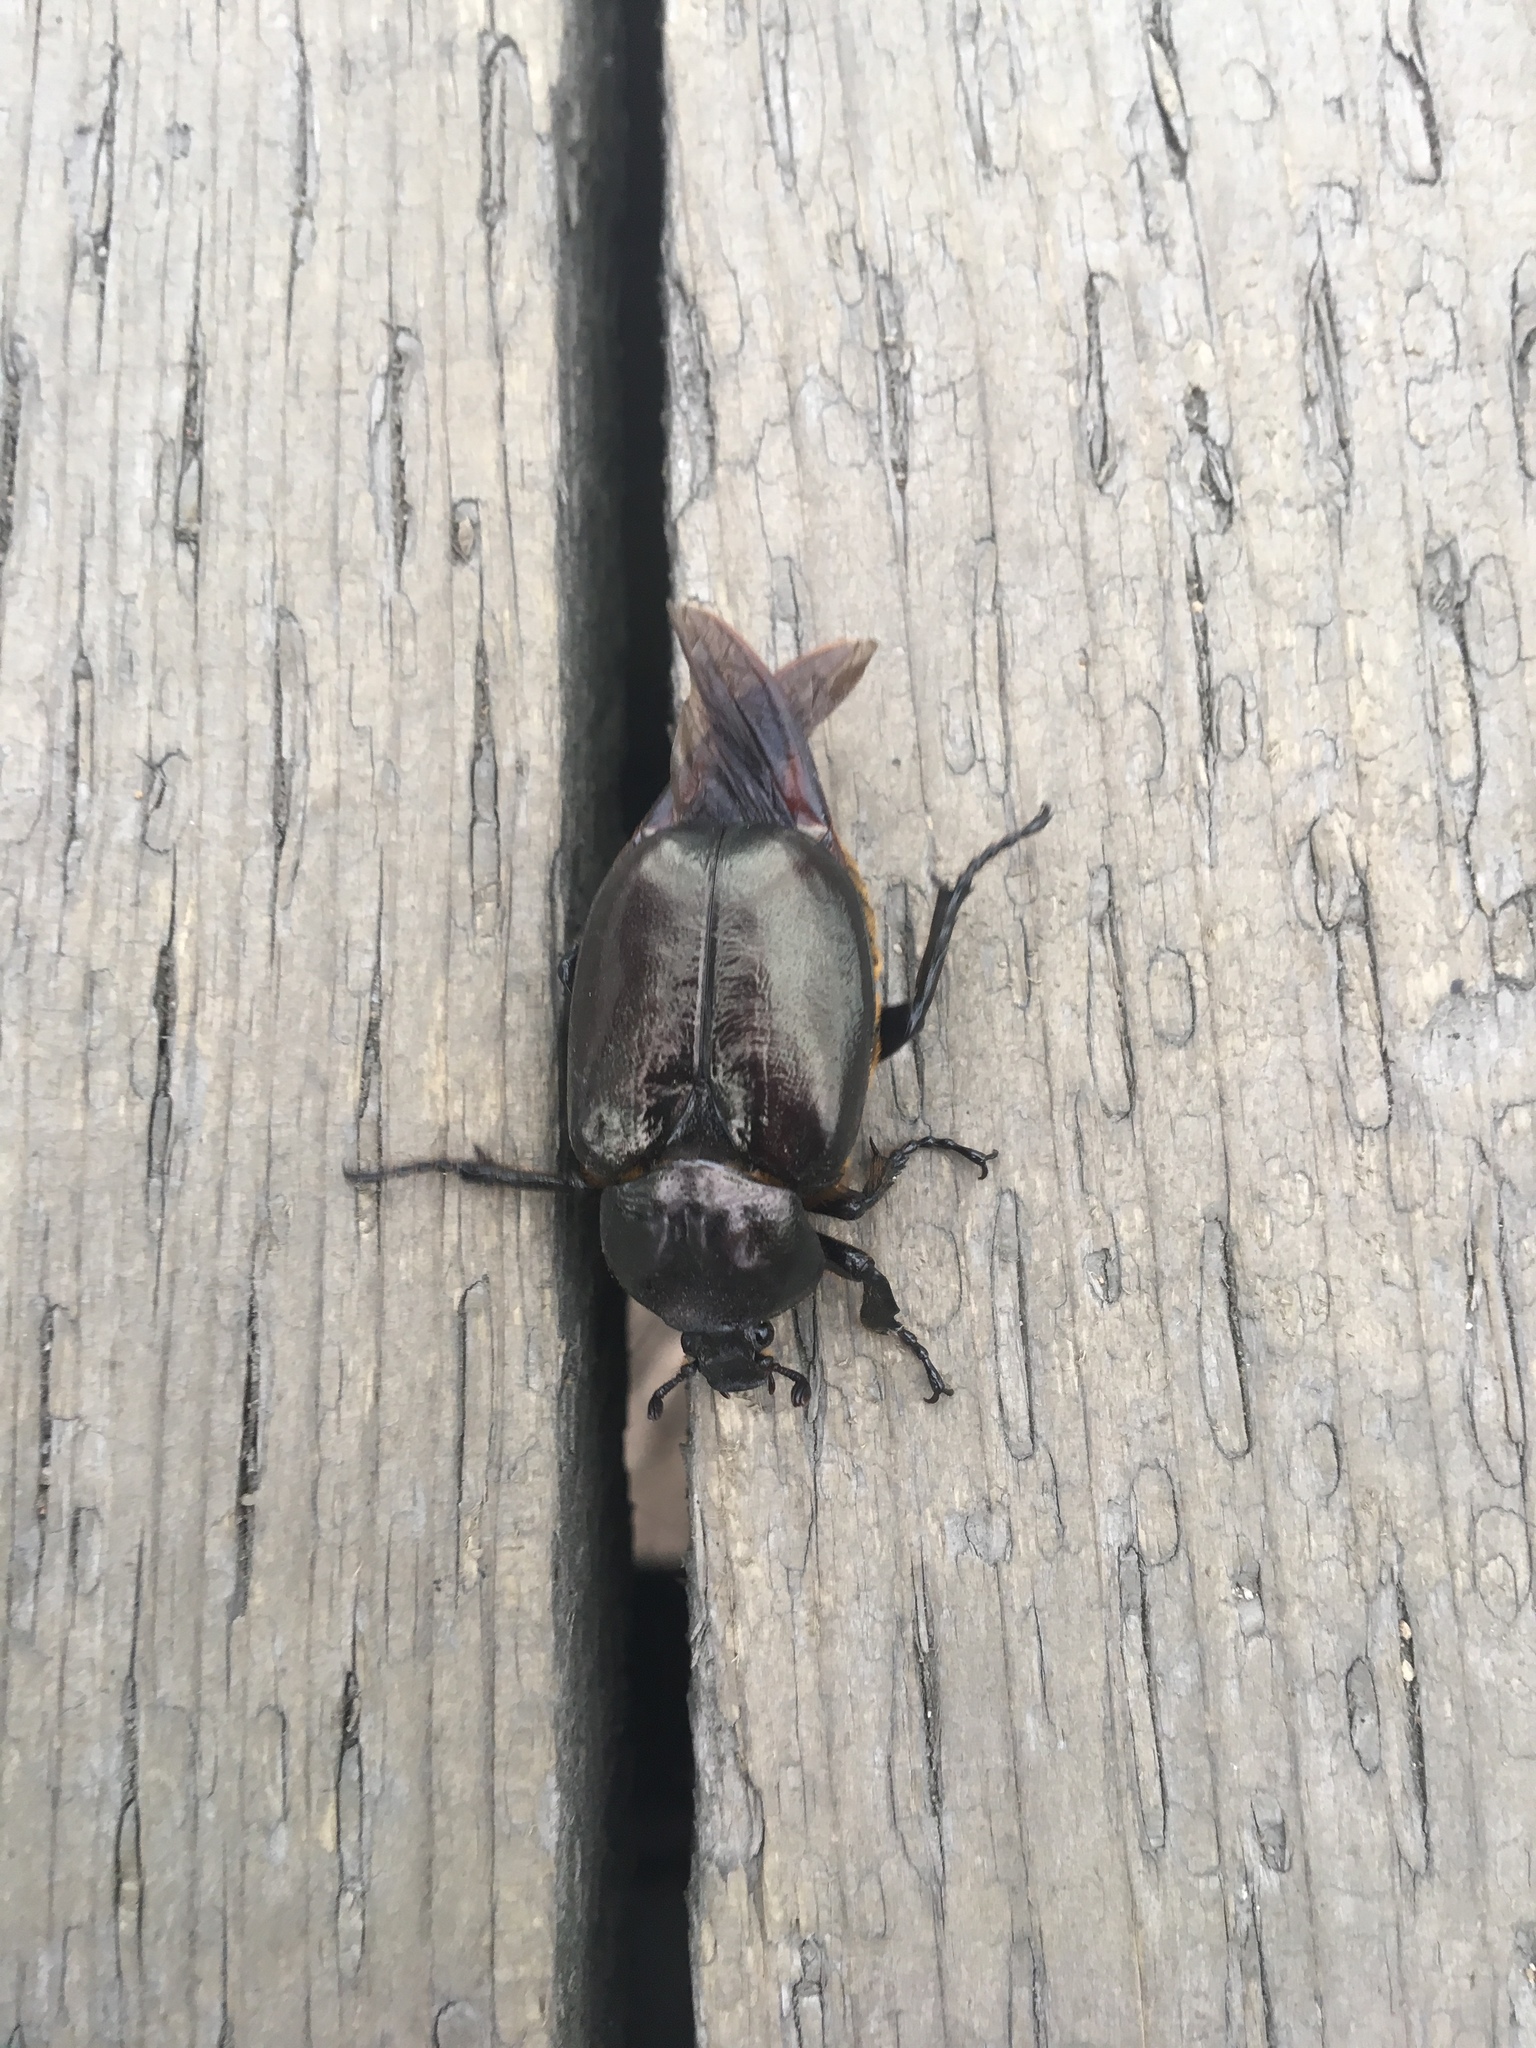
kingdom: Animalia
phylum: Arthropoda
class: Insecta
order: Coleoptera
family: Scarabaeidae
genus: Osmoderma
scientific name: Osmoderma eremicola
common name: Hermit flower beetle
